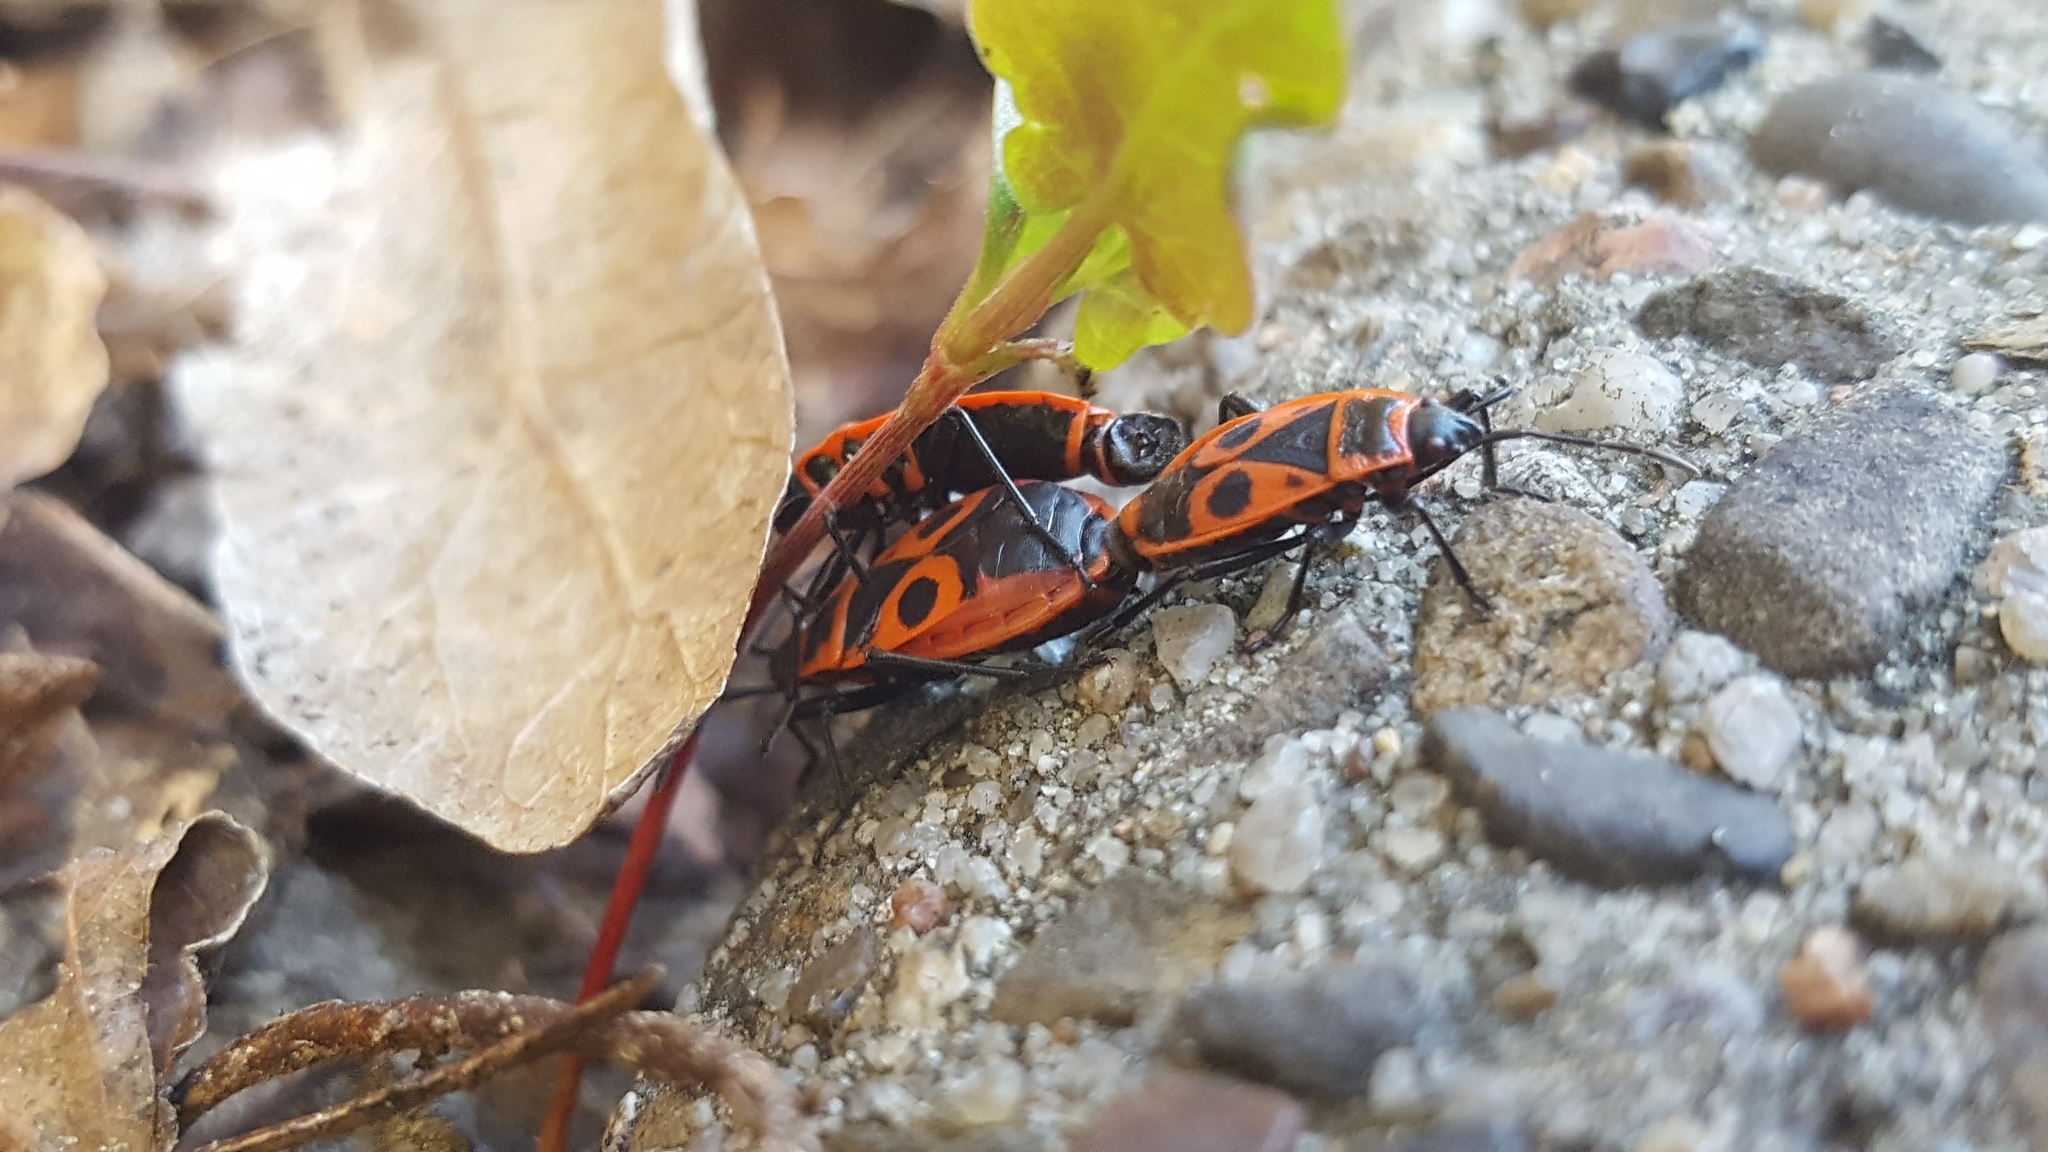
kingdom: Animalia
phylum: Arthropoda
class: Insecta
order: Hemiptera
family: Pyrrhocoridae
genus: Pyrrhocoris
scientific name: Pyrrhocoris apterus
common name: Firebug
